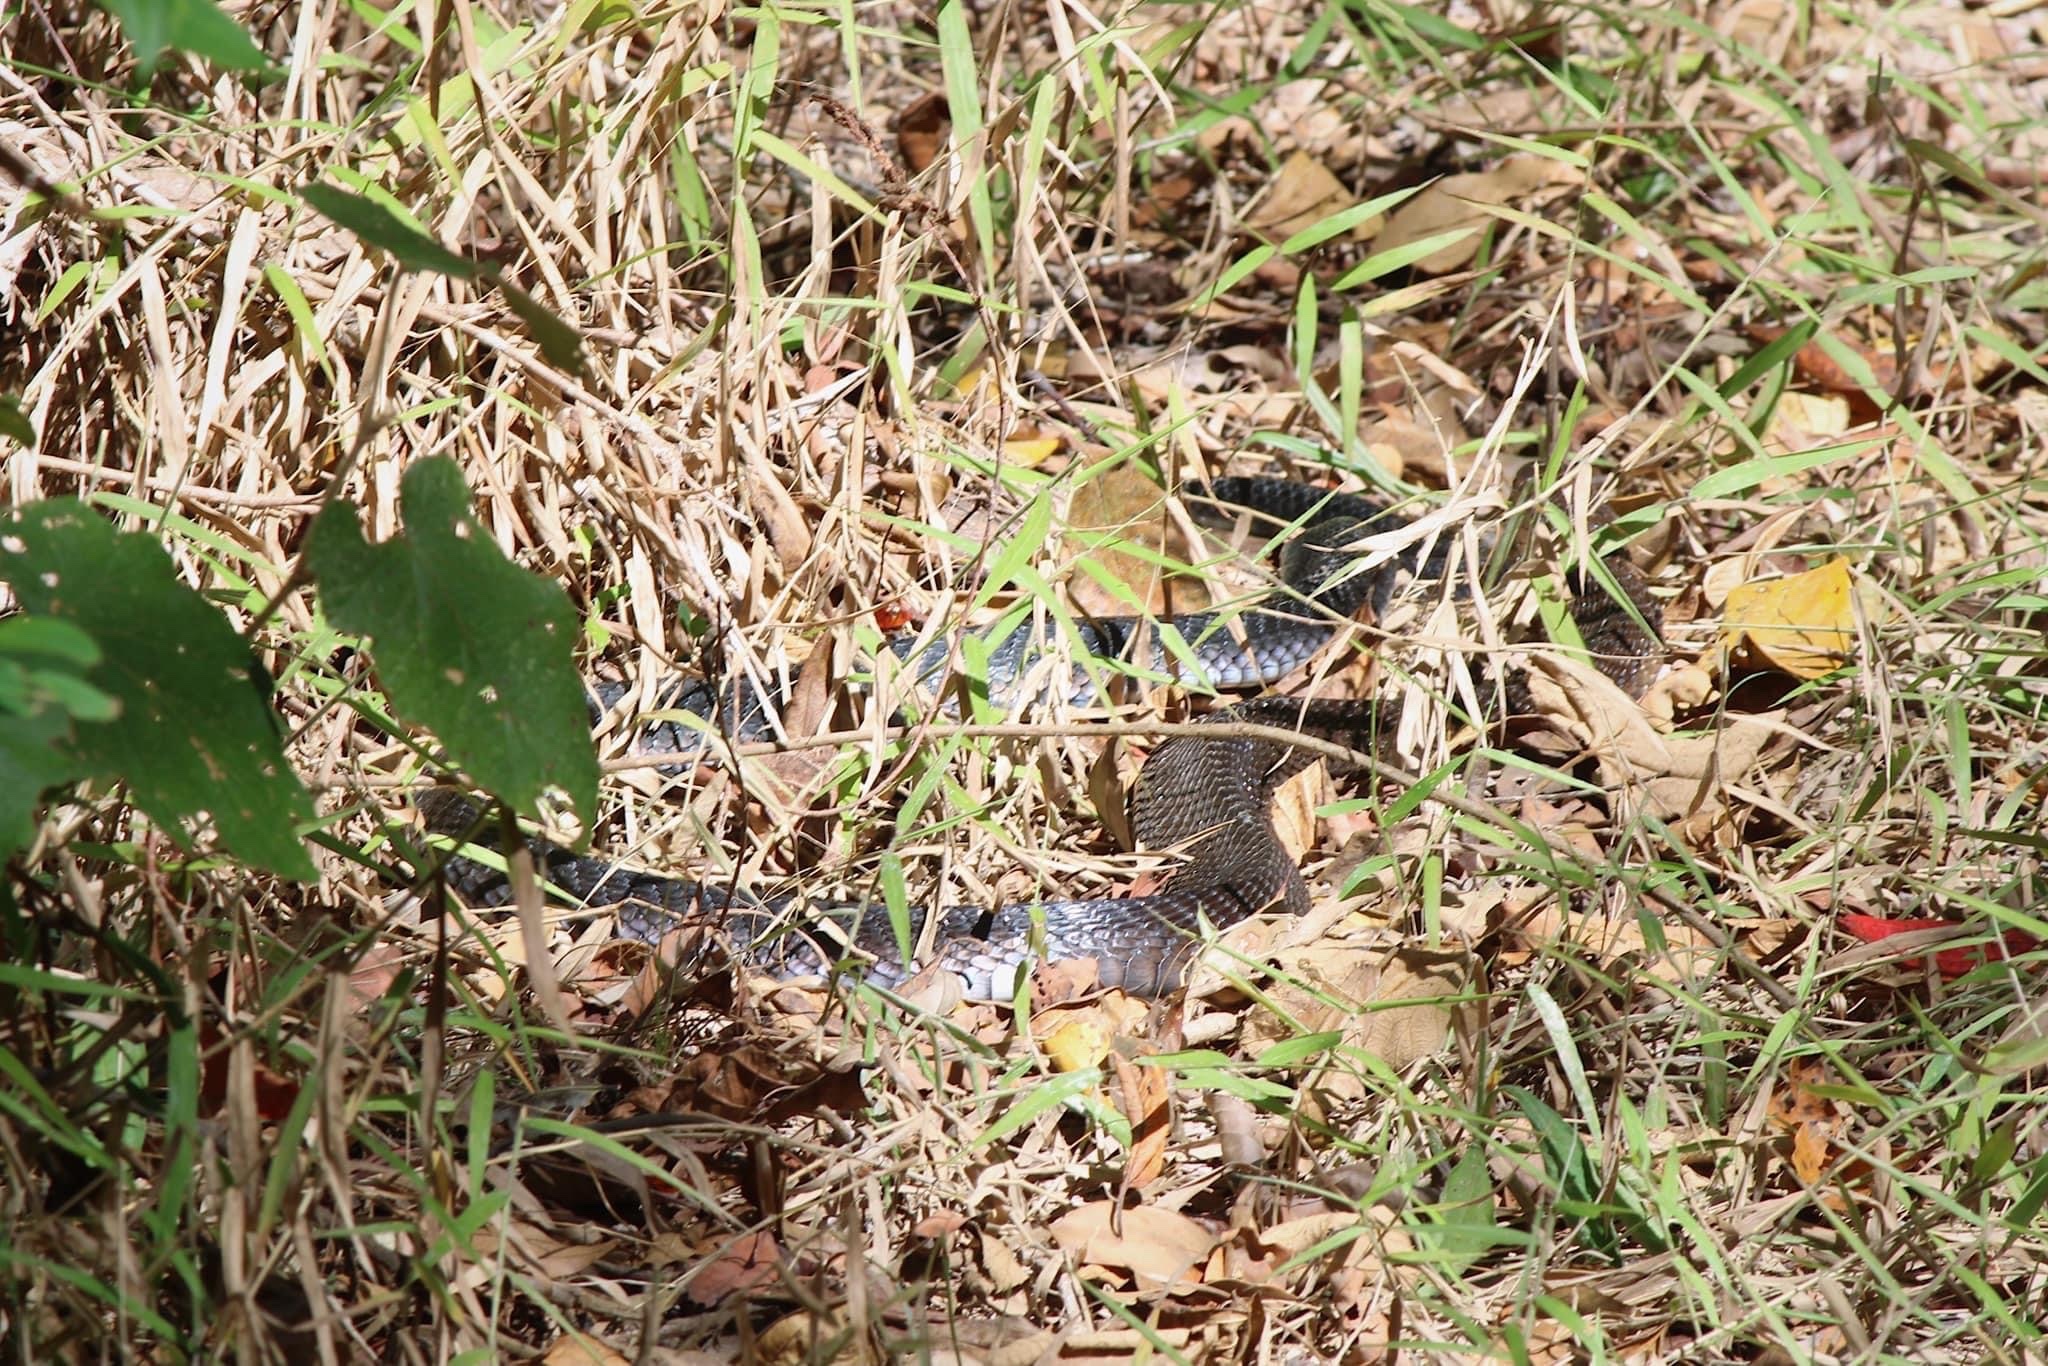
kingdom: Animalia
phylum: Chordata
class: Squamata
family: Elapidae
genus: Naja
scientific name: Naja kaouthia
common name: Monocled cobra
